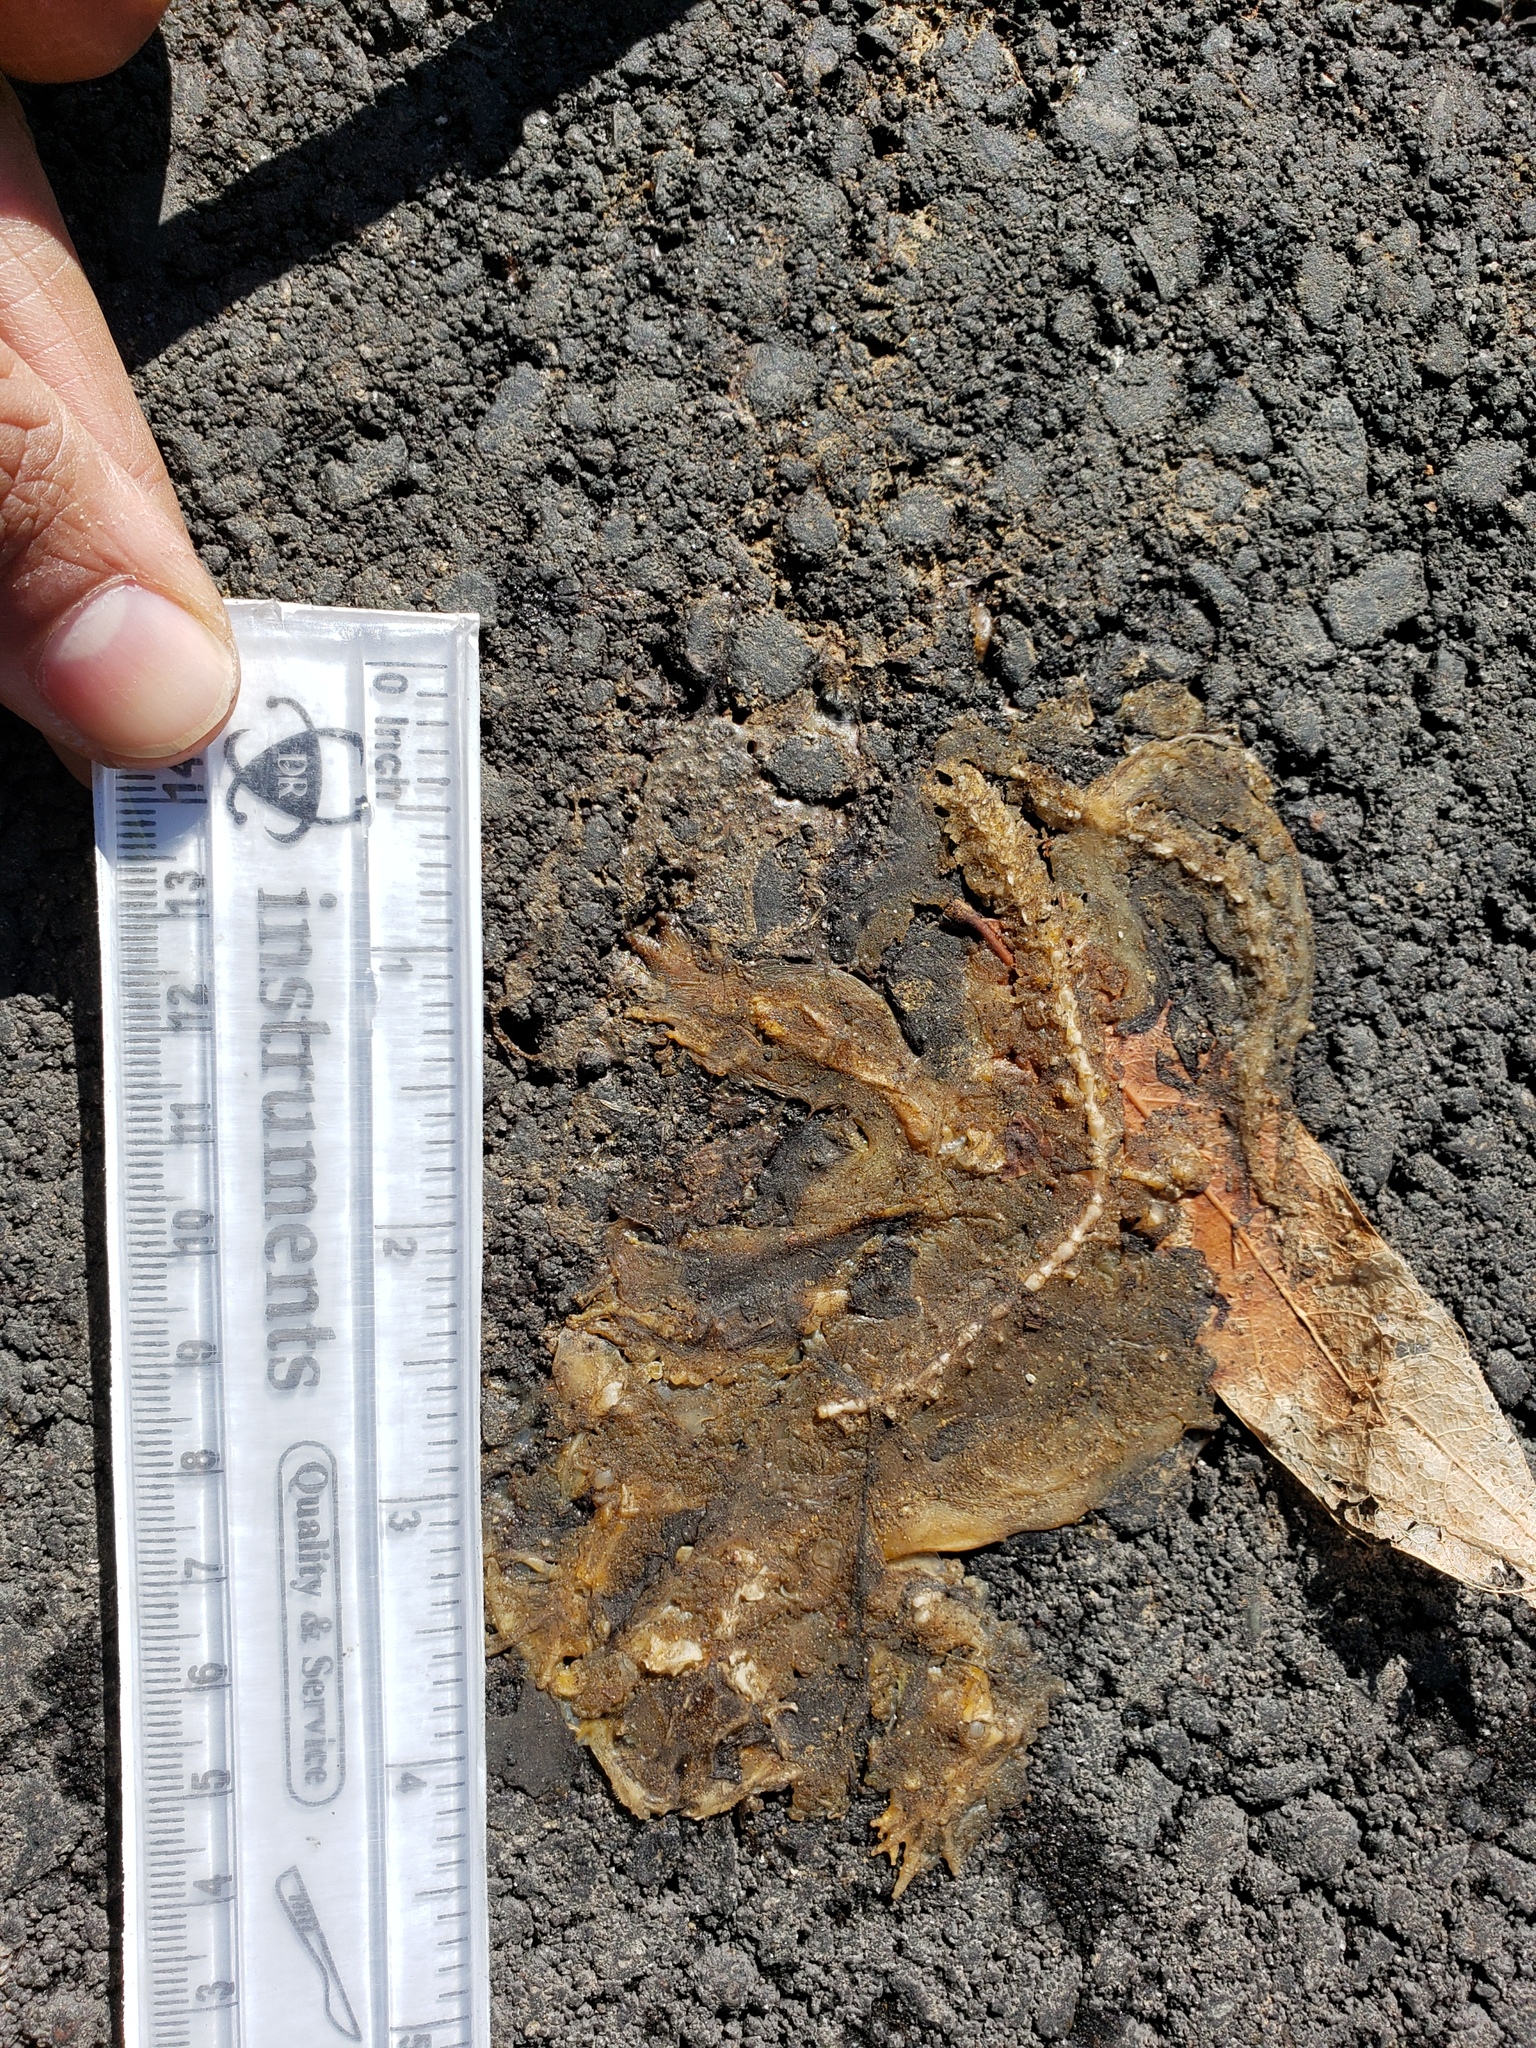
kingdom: Animalia
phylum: Chordata
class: Amphibia
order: Caudata
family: Salamandridae
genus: Taricha
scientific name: Taricha
